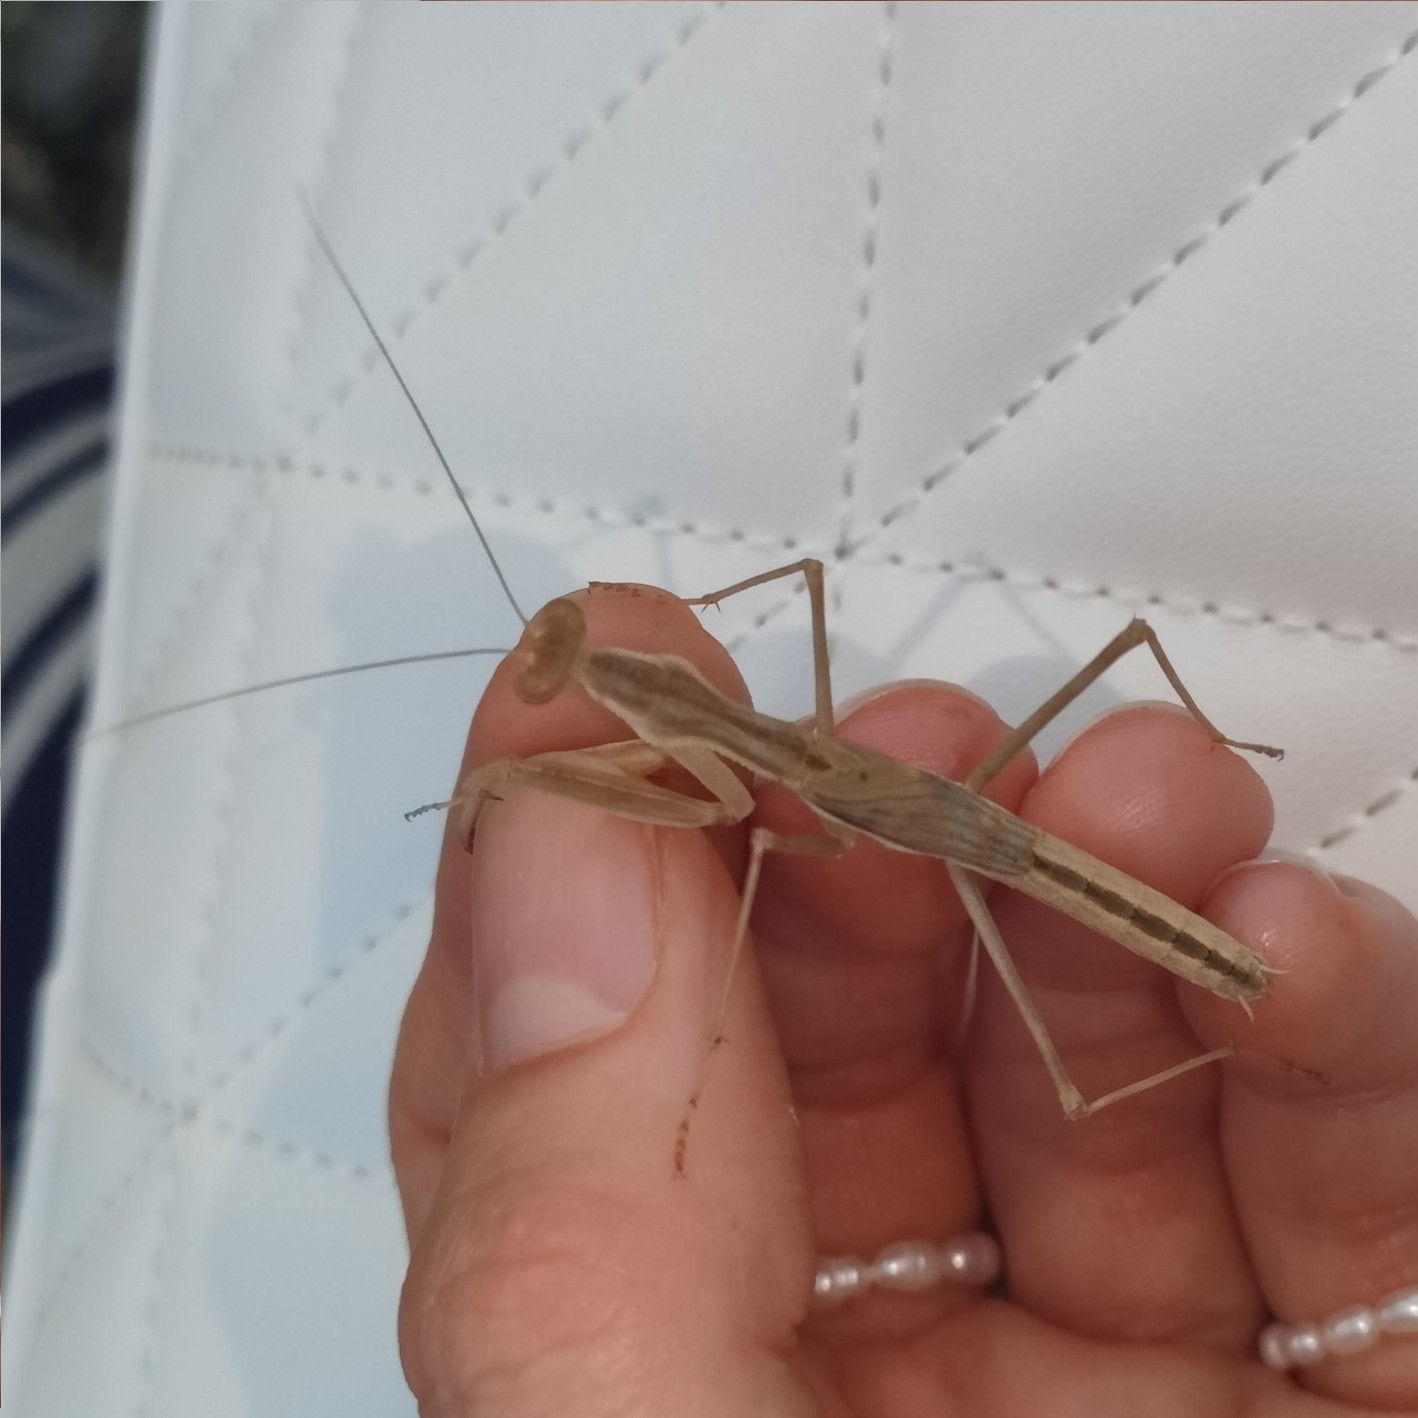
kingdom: Animalia
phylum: Arthropoda
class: Insecta
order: Mantodea
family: Rivetinidae
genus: Bolivaria
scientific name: Bolivaria brachyptera
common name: Bolivar's short winged mantis
